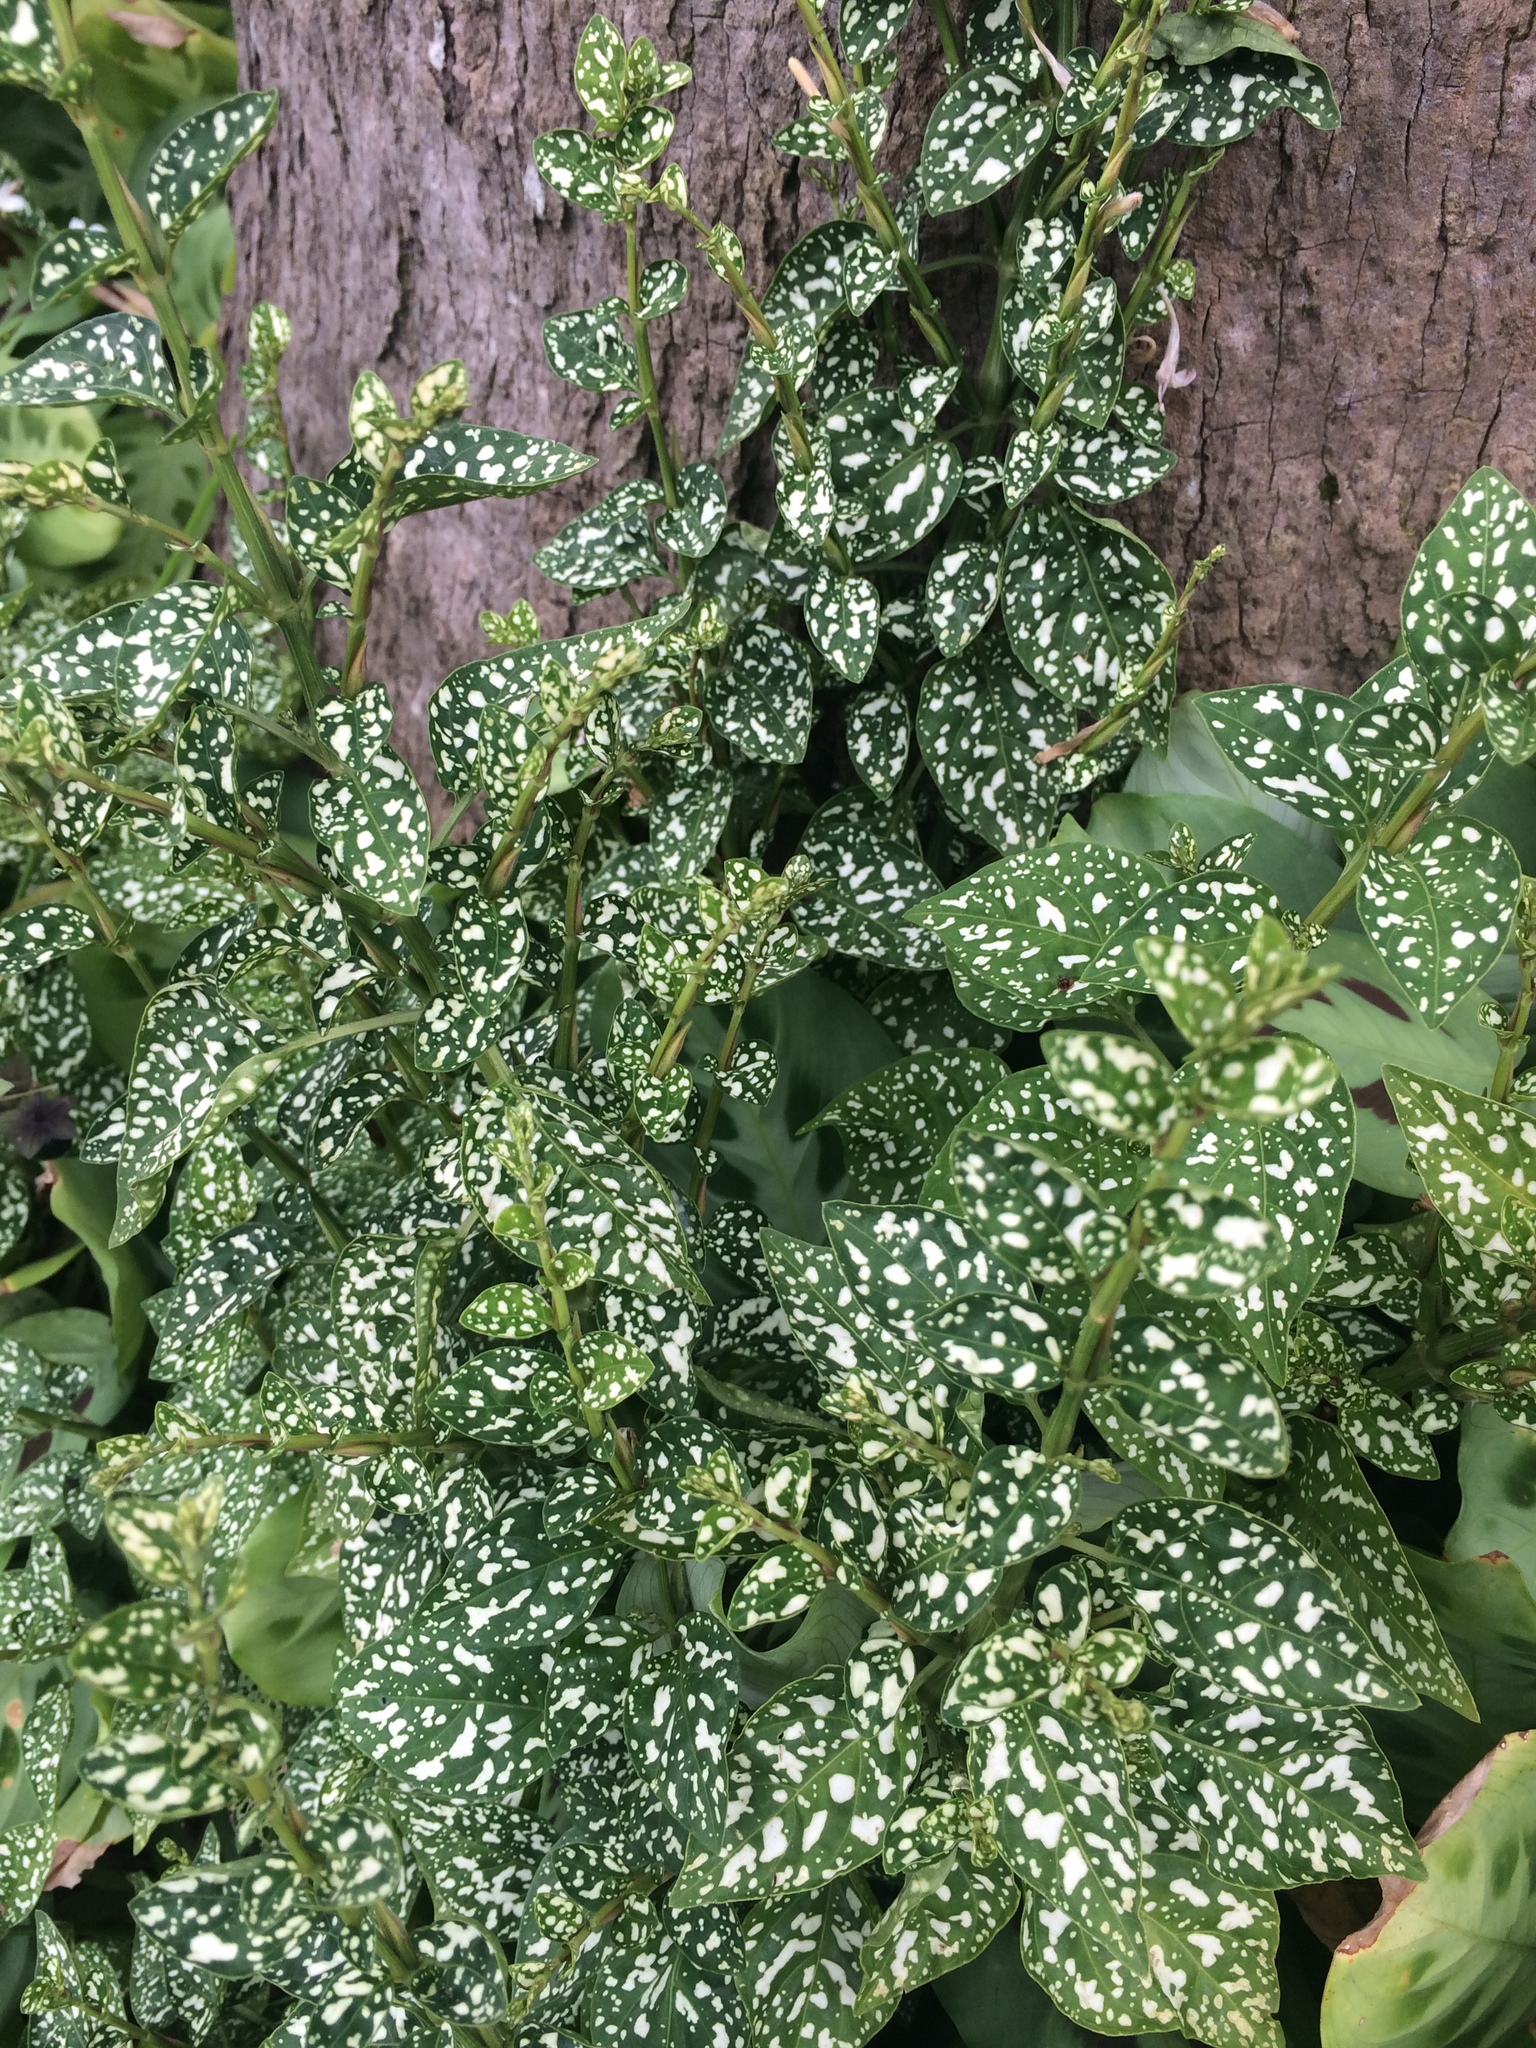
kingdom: Plantae
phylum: Tracheophyta
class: Magnoliopsida
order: Lamiales
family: Acanthaceae
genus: Hypoestes
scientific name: Hypoestes phyllostachya
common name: Polkadot-plant
